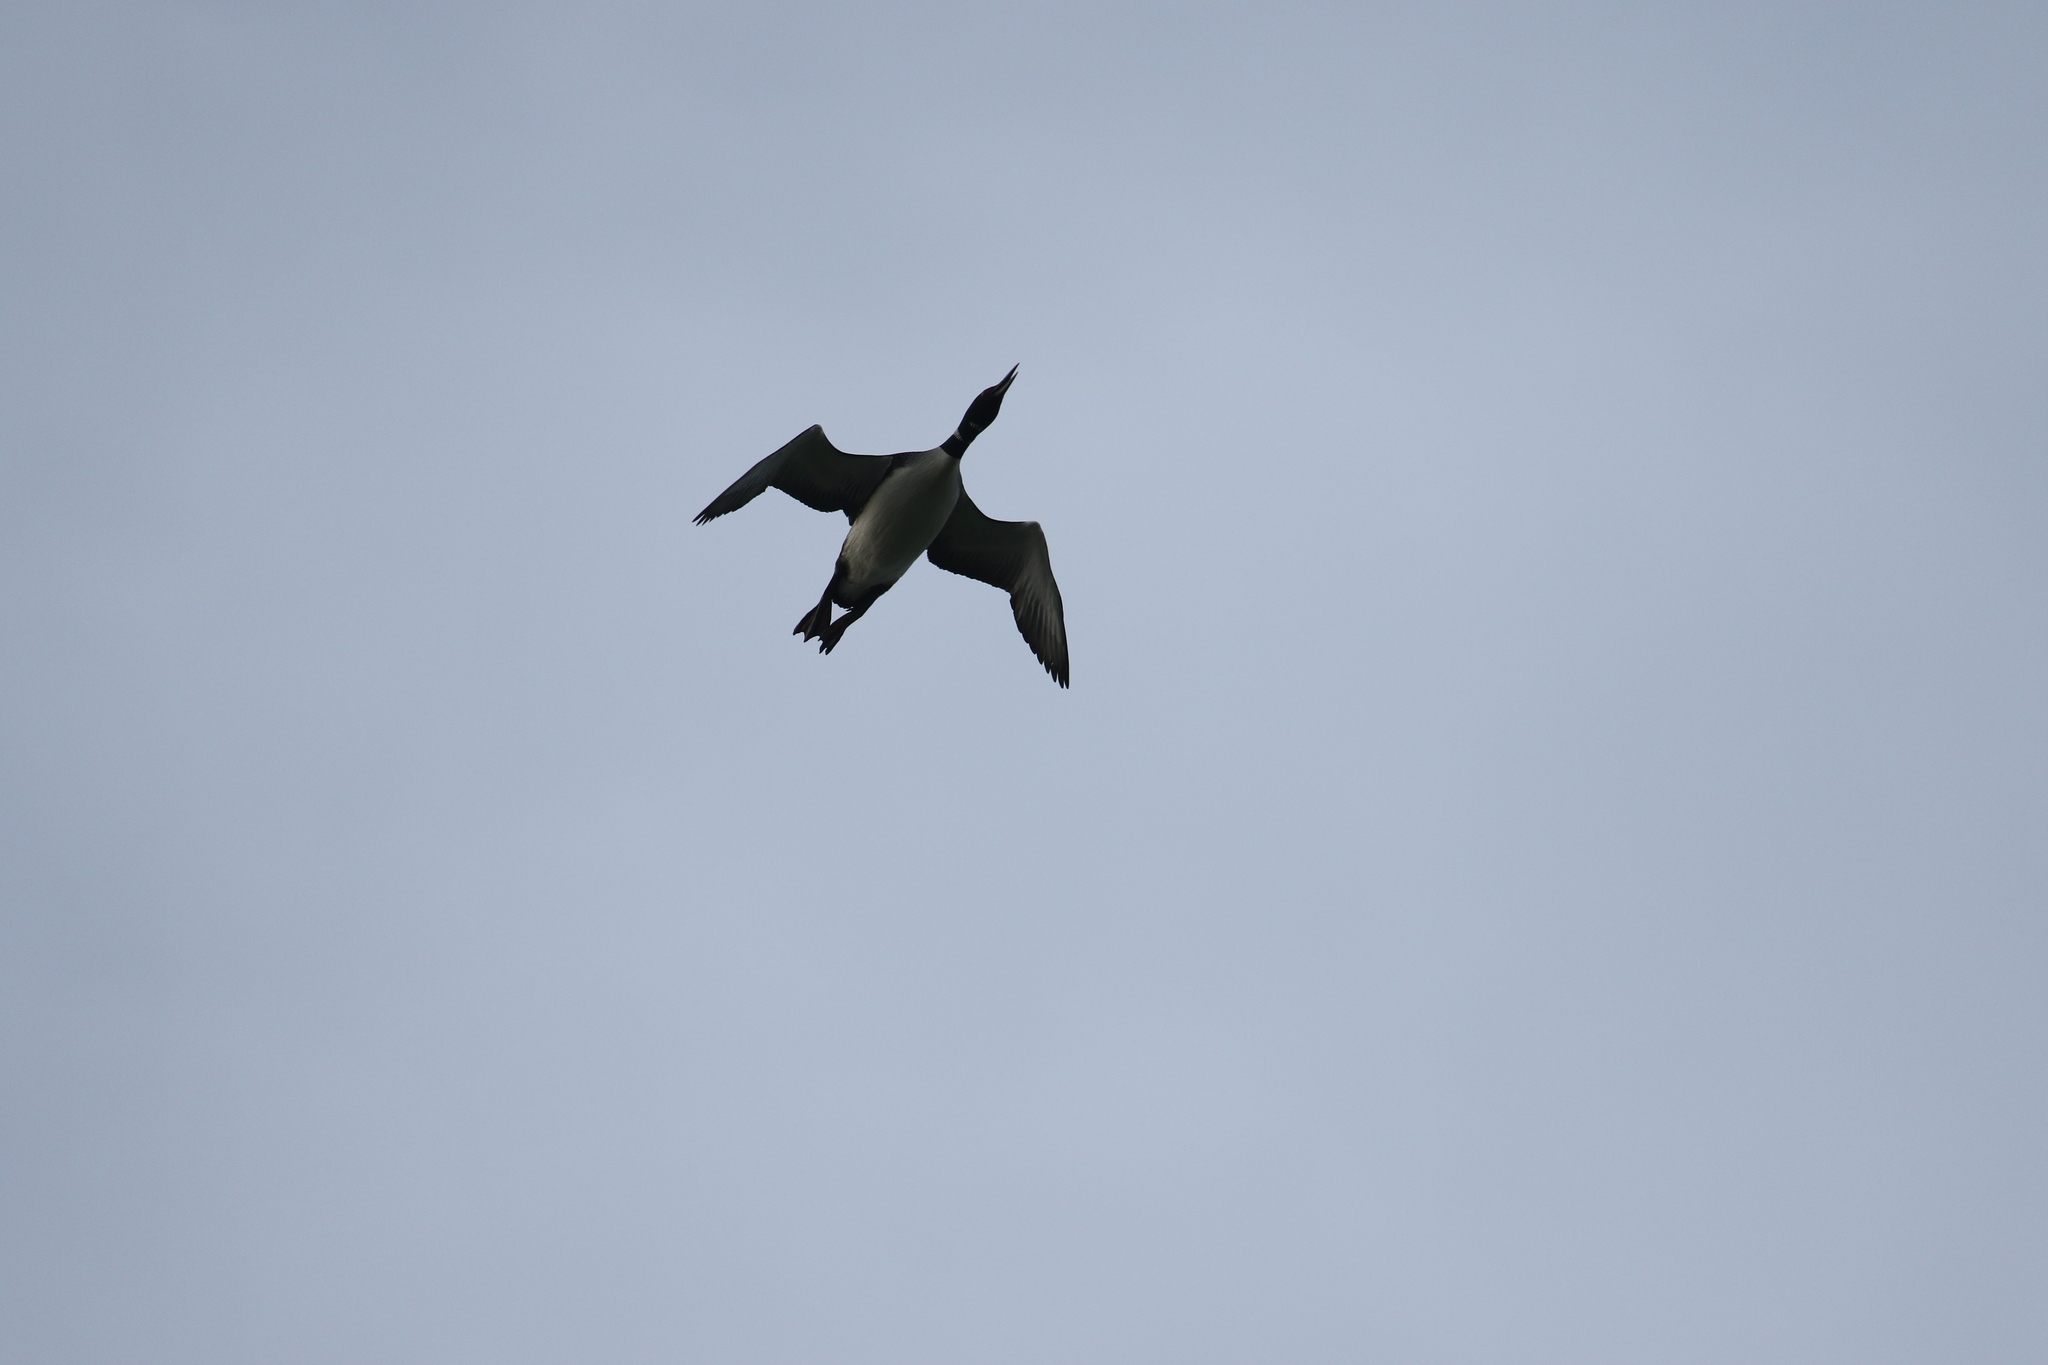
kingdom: Animalia
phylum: Chordata
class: Aves
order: Gaviiformes
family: Gaviidae
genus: Gavia
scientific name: Gavia immer
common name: Common loon
